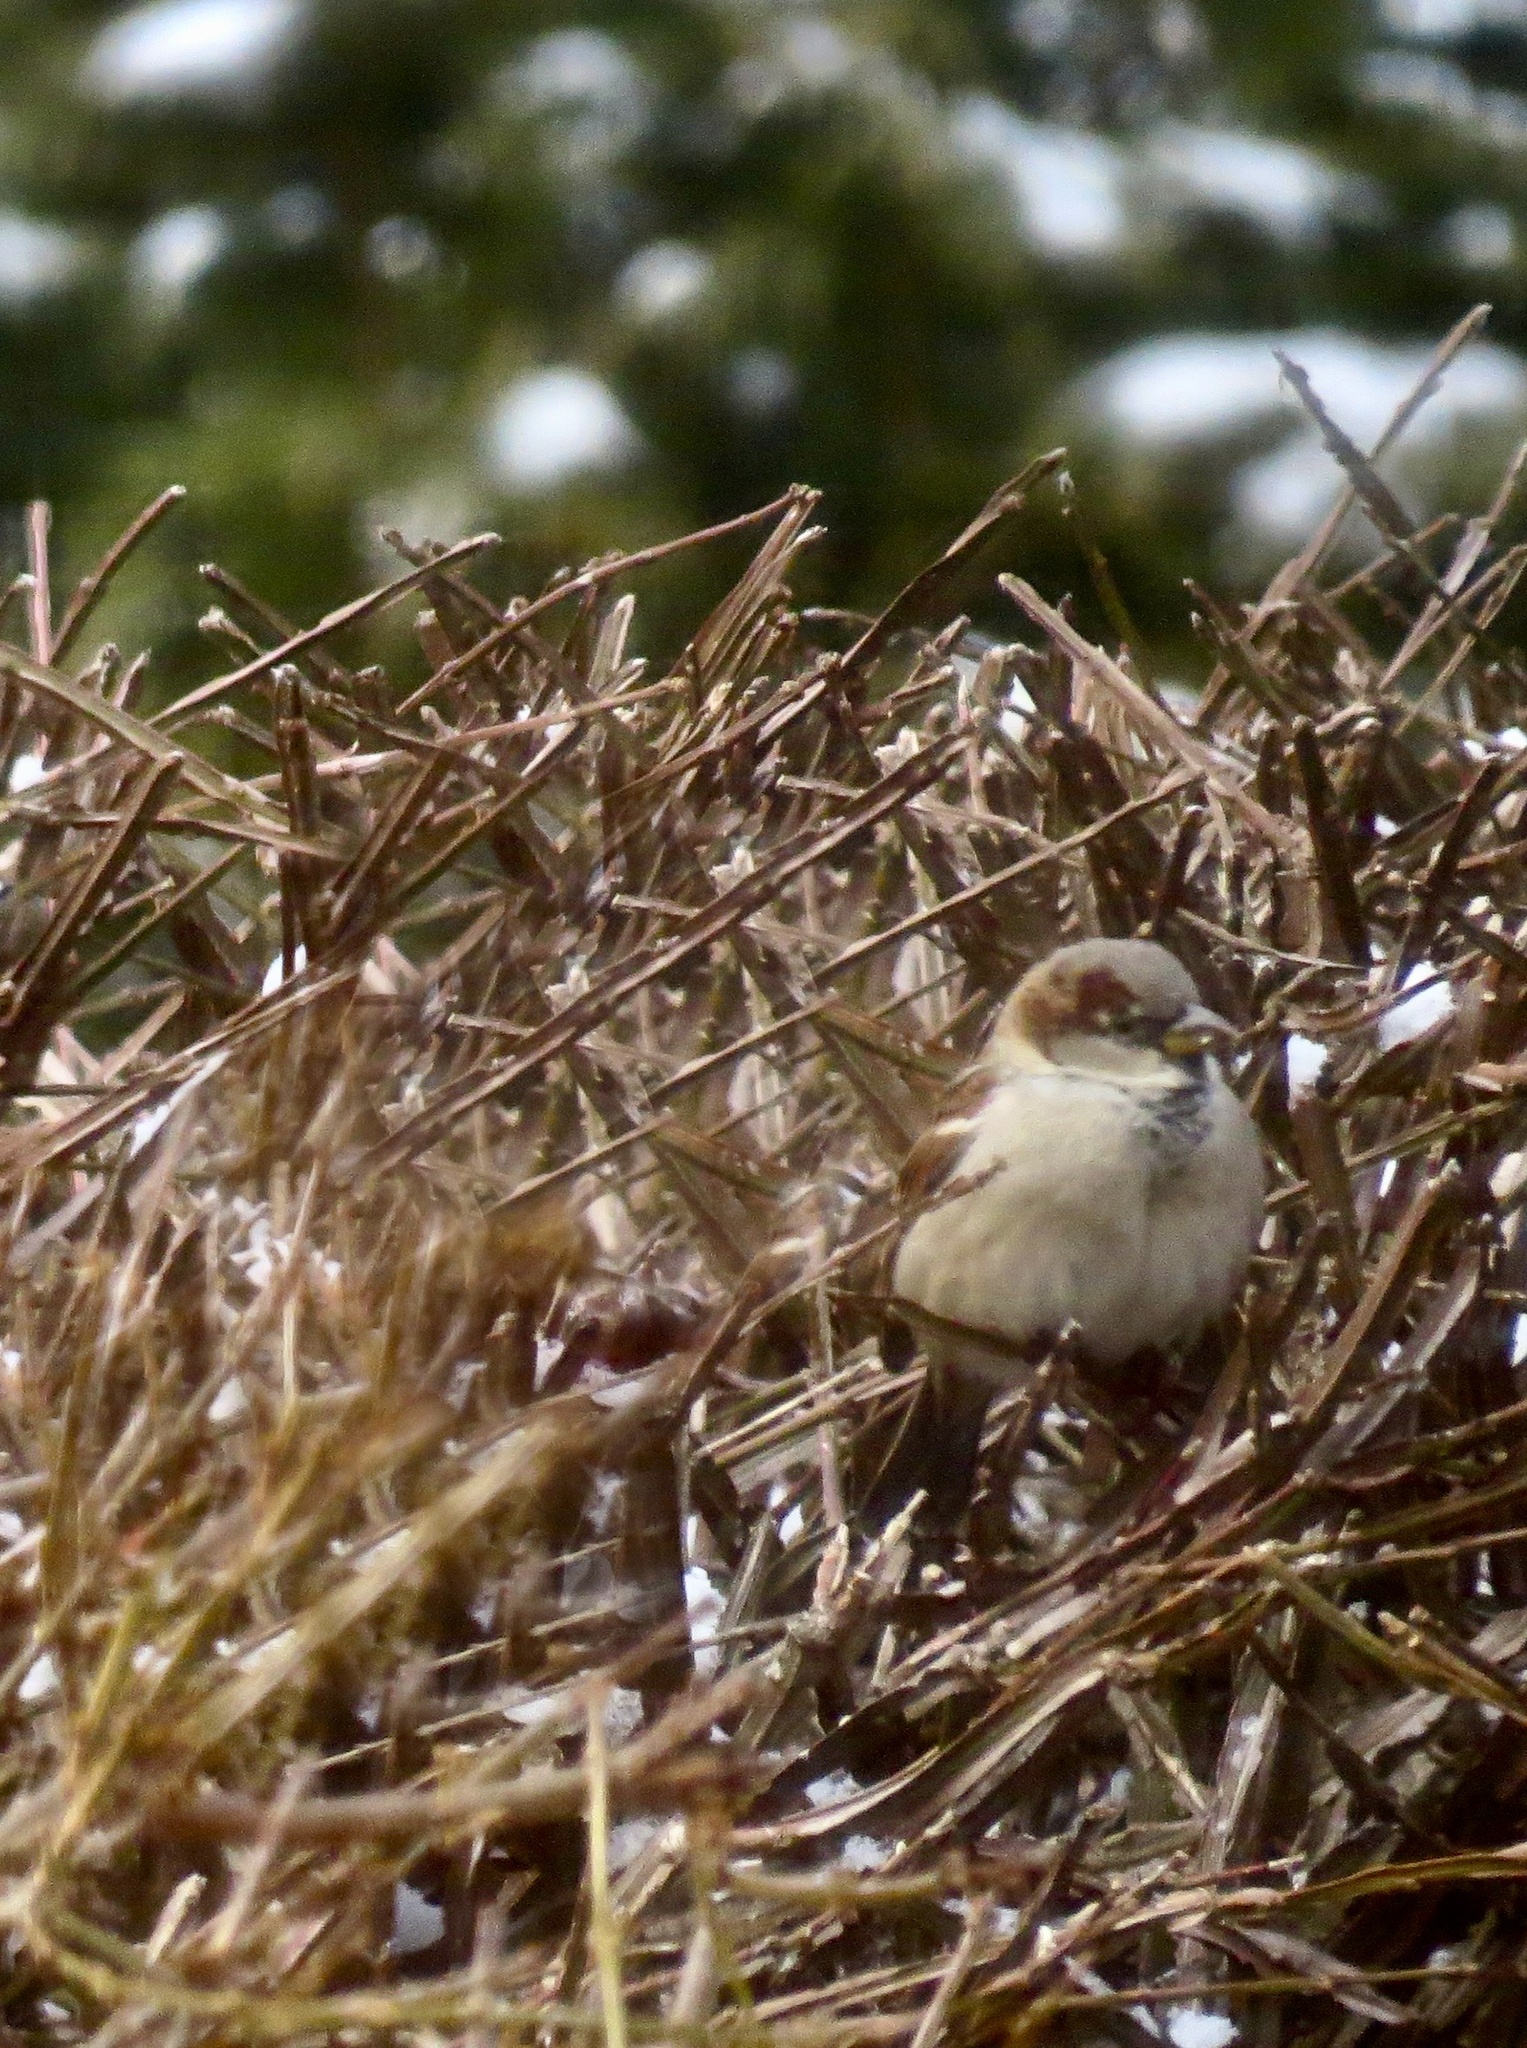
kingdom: Animalia
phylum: Chordata
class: Aves
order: Passeriformes
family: Passeridae
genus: Passer
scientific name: Passer domesticus
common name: House sparrow
